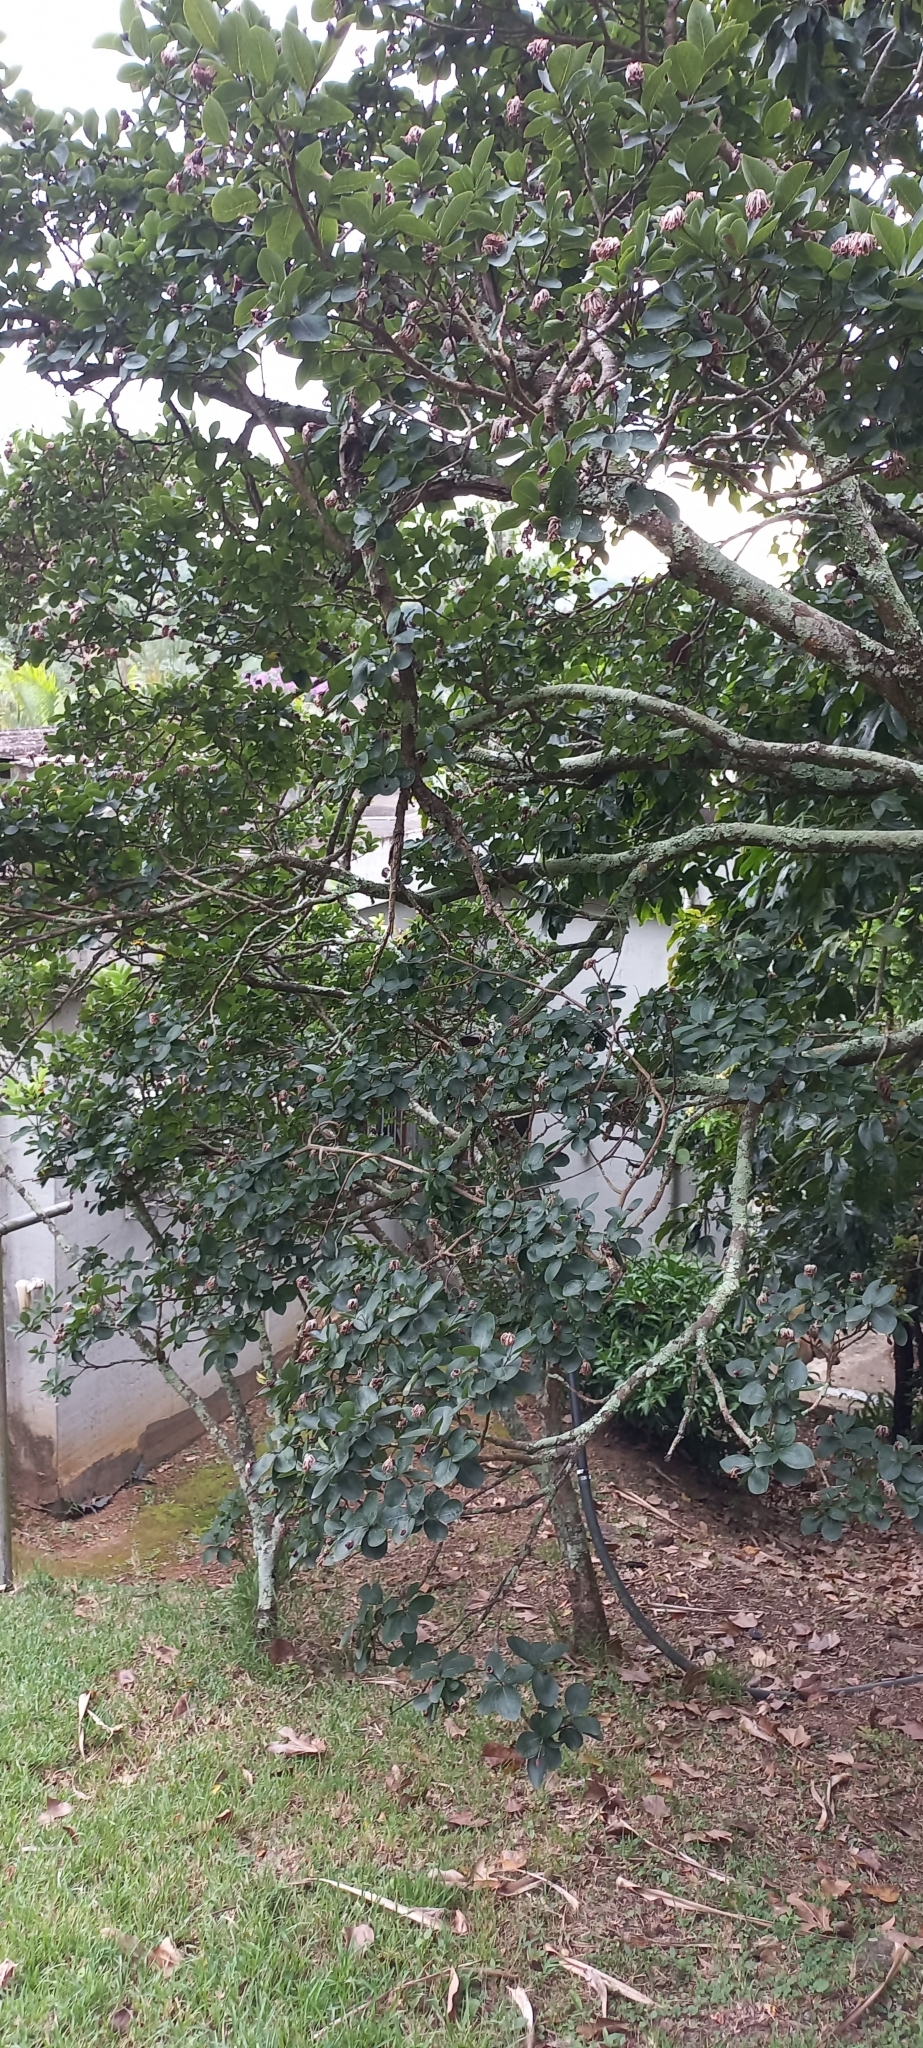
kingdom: Plantae
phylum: Tracheophyta
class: Magnoliopsida
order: Malvales
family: Thymelaeaceae
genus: Dais
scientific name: Dais cotinifolia
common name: Pompon tree
